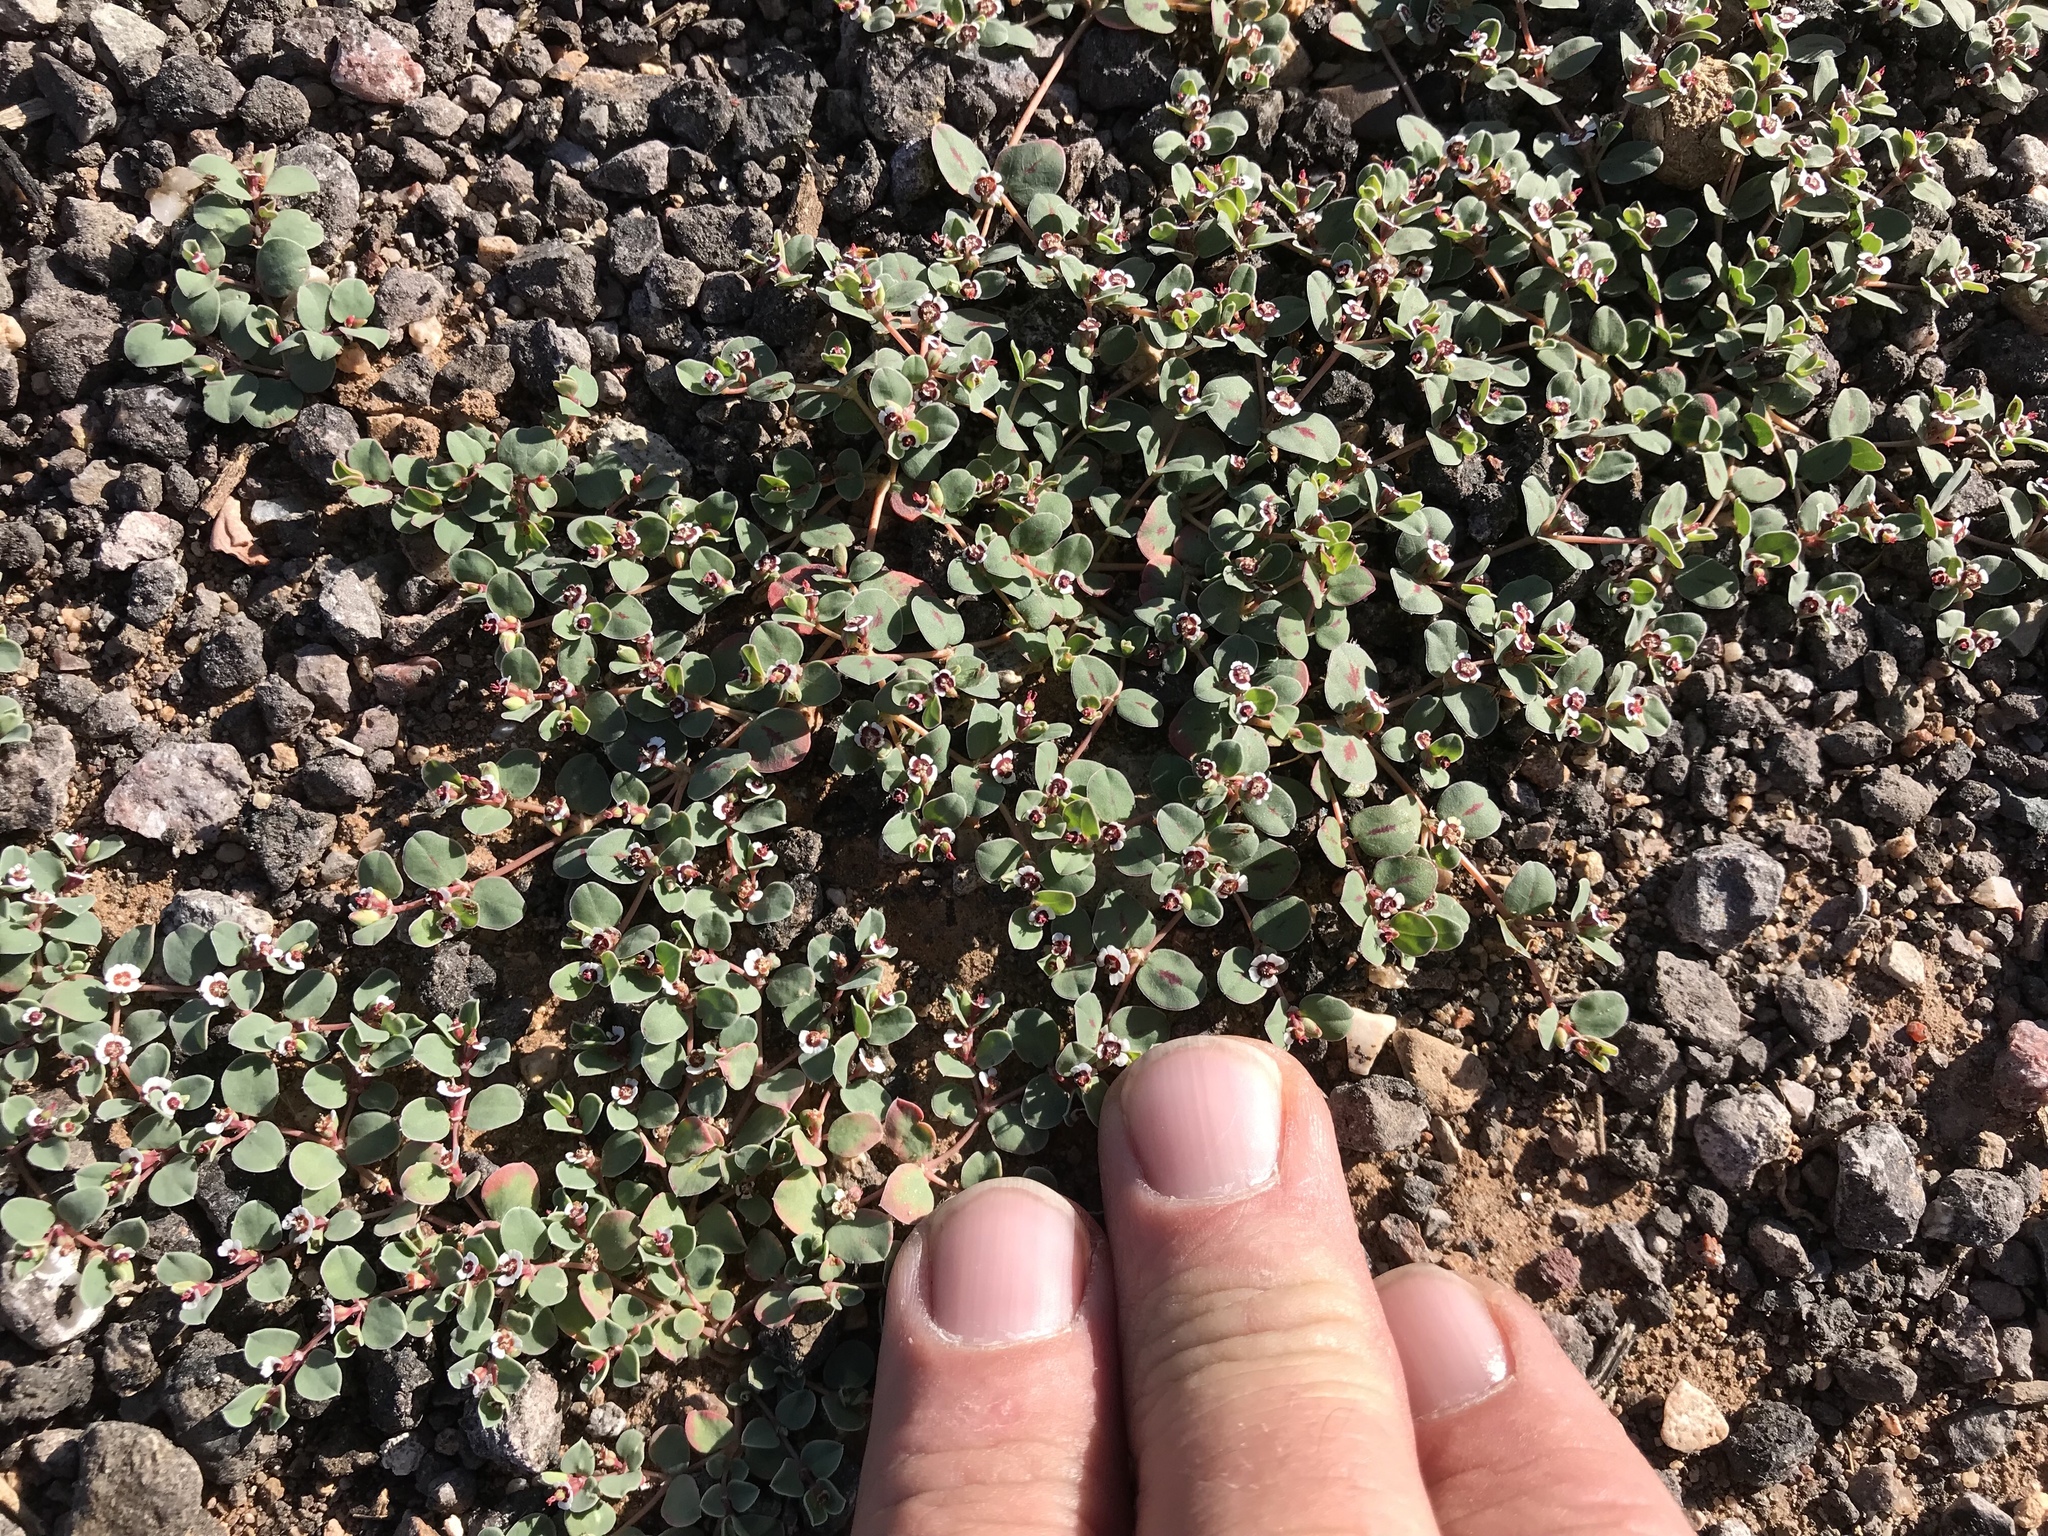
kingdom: Plantae
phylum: Tracheophyta
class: Magnoliopsida
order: Malpighiales
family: Euphorbiaceae
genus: Euphorbia
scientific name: Euphorbia albomarginata
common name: Whitemargin sandmat
